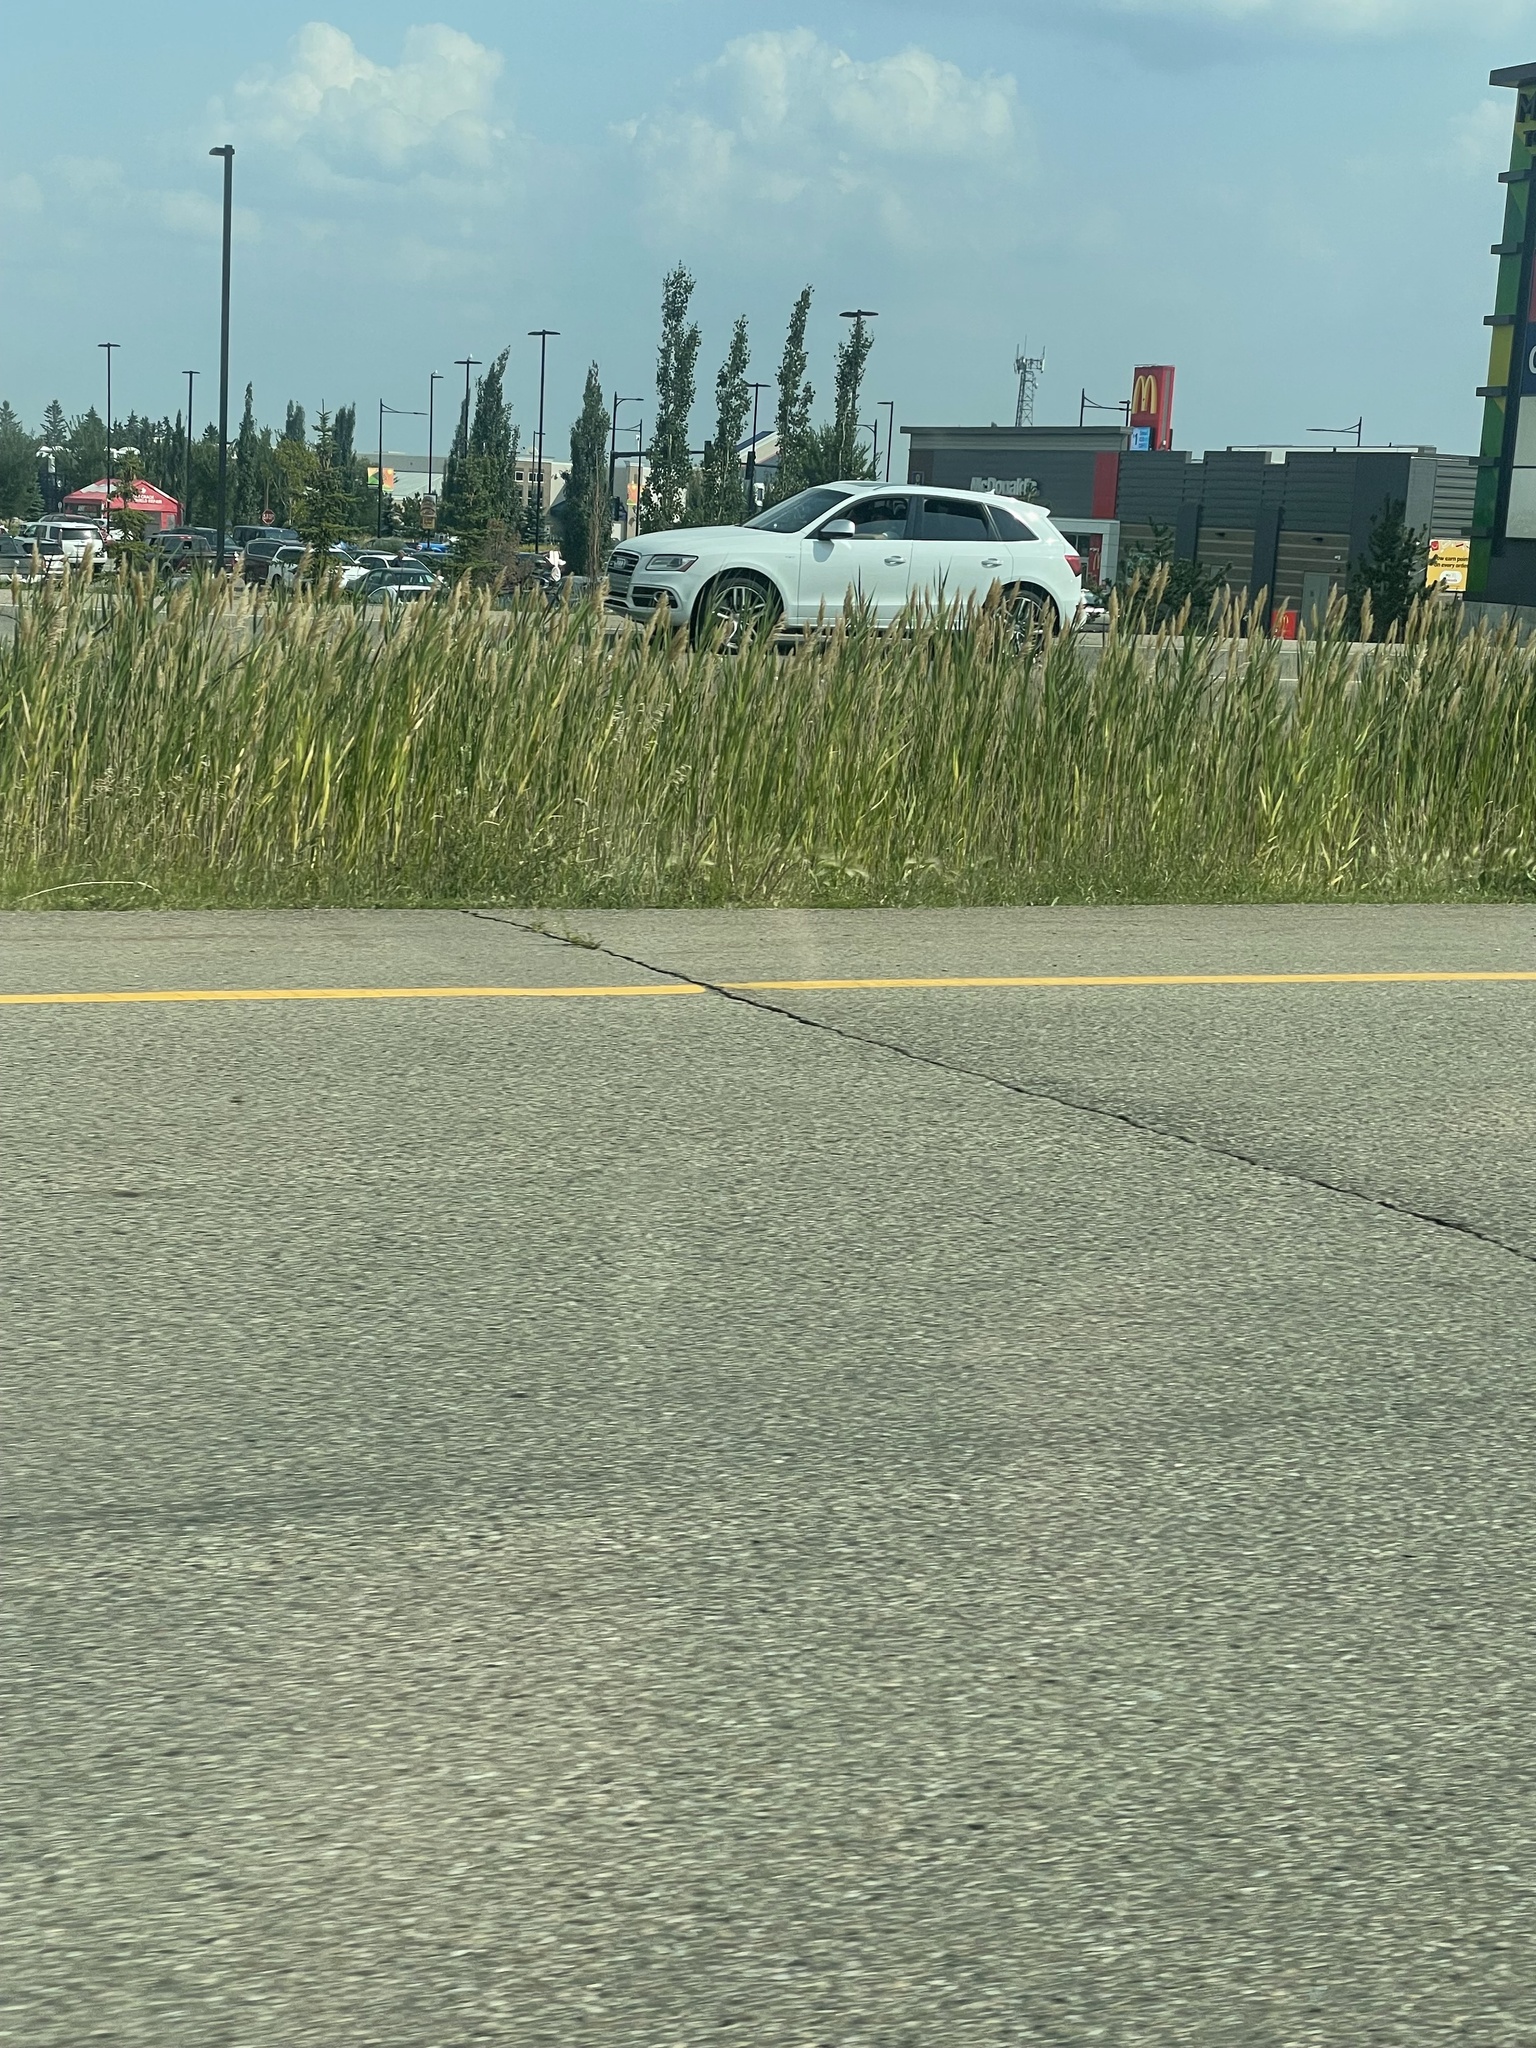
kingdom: Plantae
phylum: Tracheophyta
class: Liliopsida
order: Poales
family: Poaceae
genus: Phragmites
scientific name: Phragmites australis
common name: Common reed
